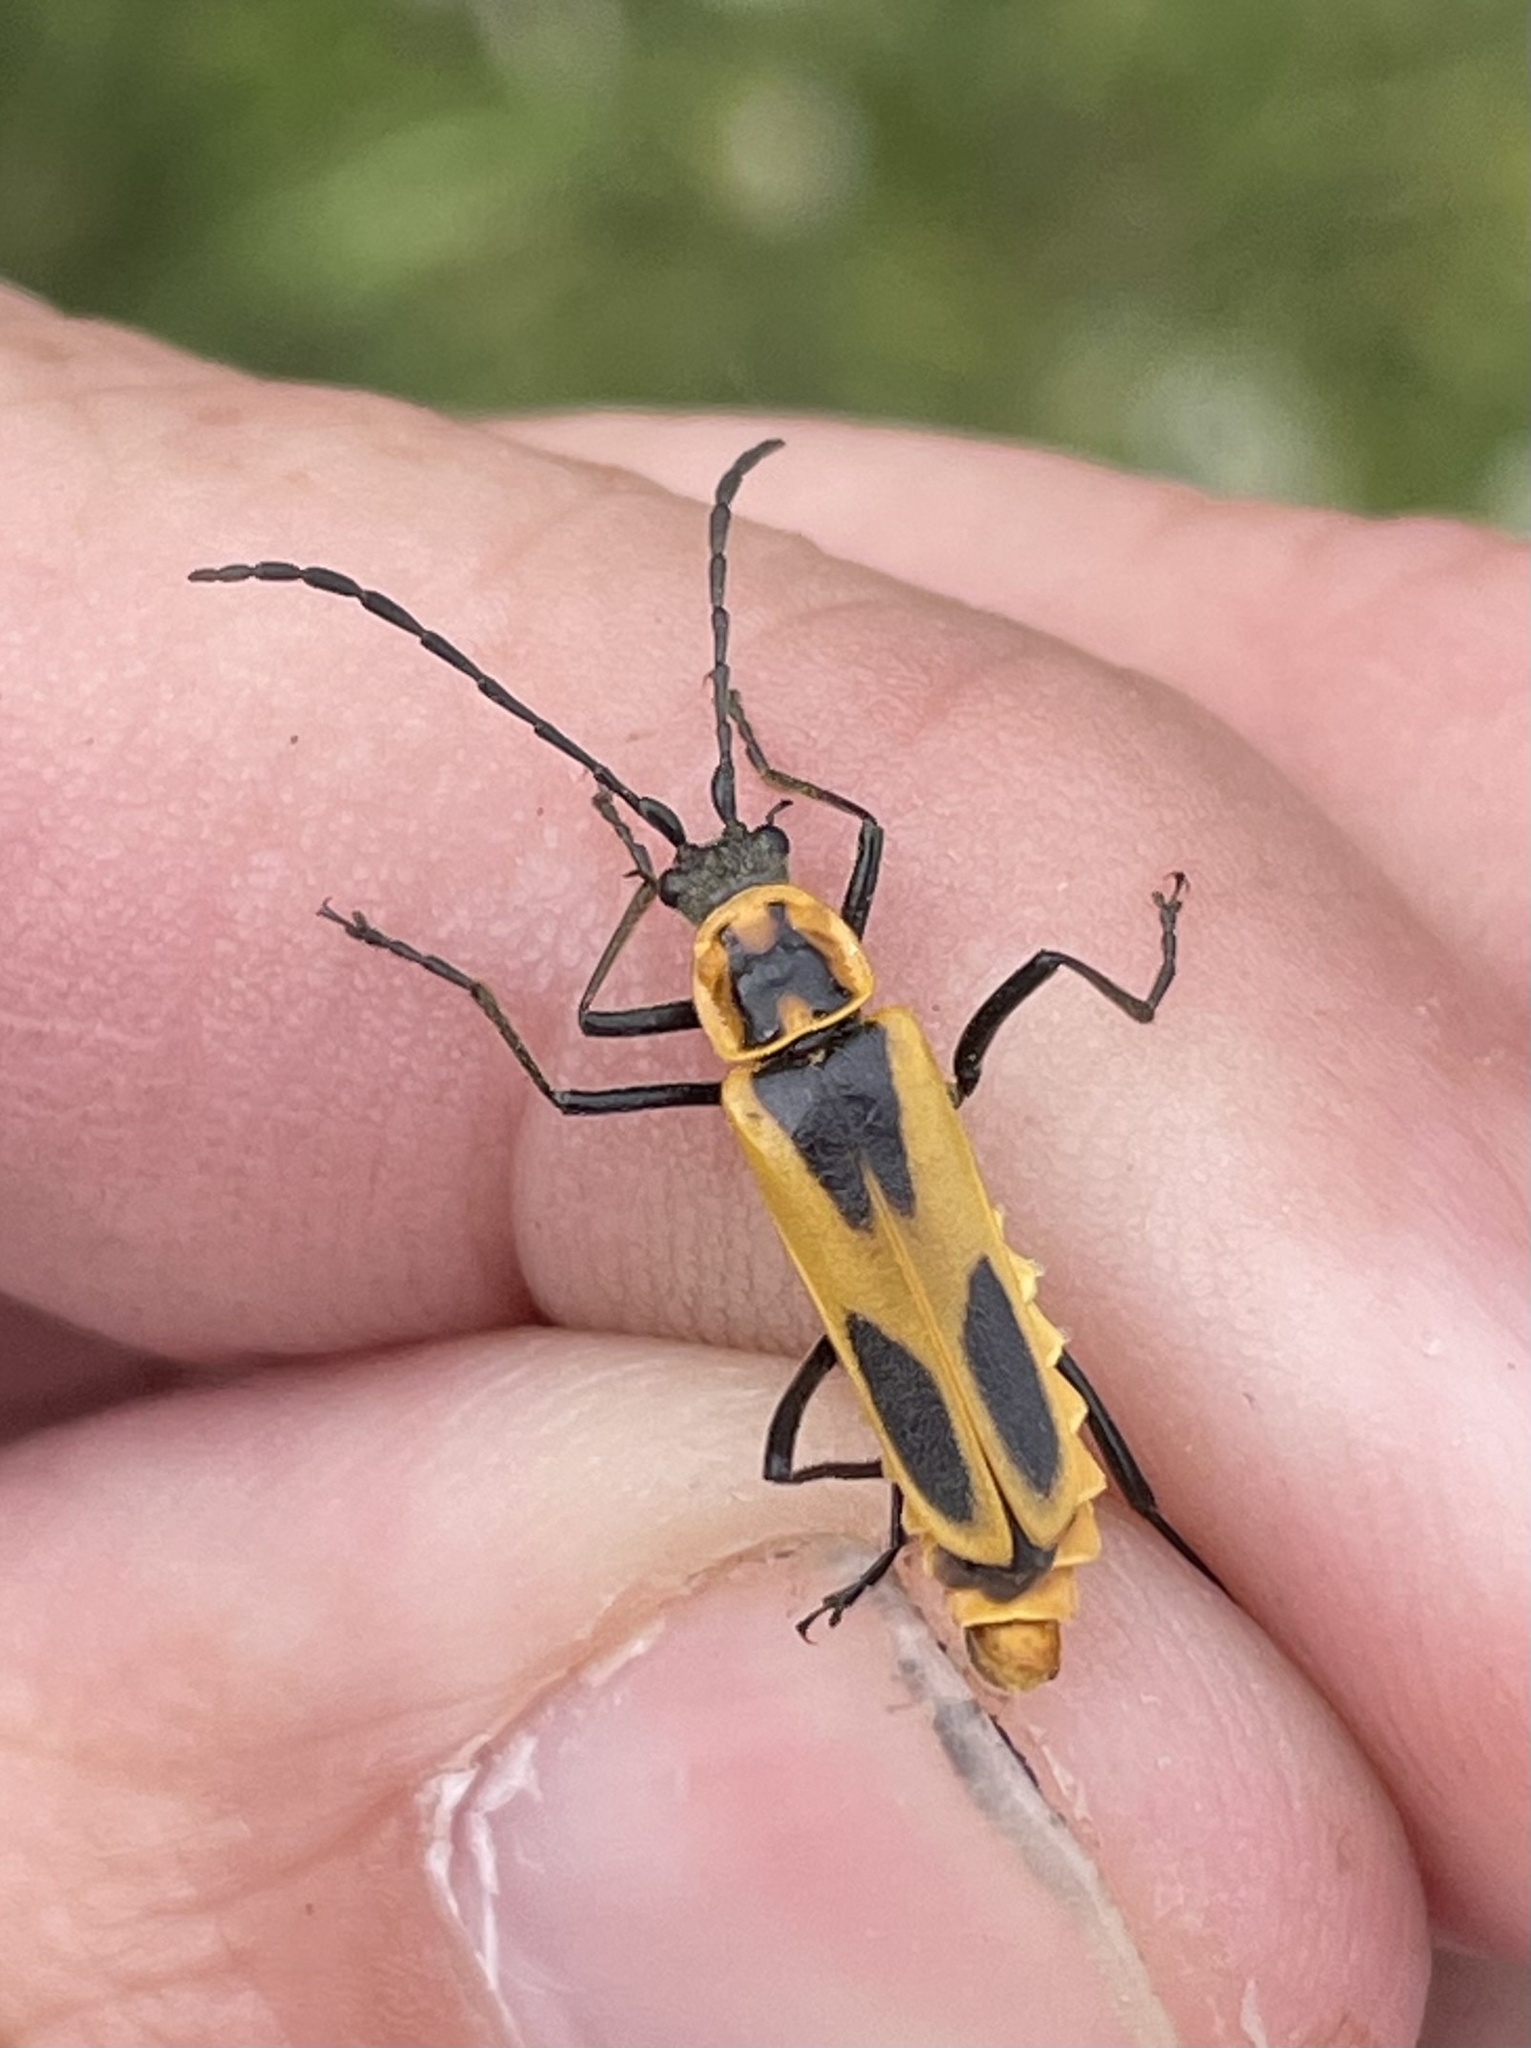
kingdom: Animalia
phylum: Arthropoda
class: Insecta
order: Coleoptera
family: Cantharidae
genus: Chauliognathus
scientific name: Chauliognathus scutellaris
